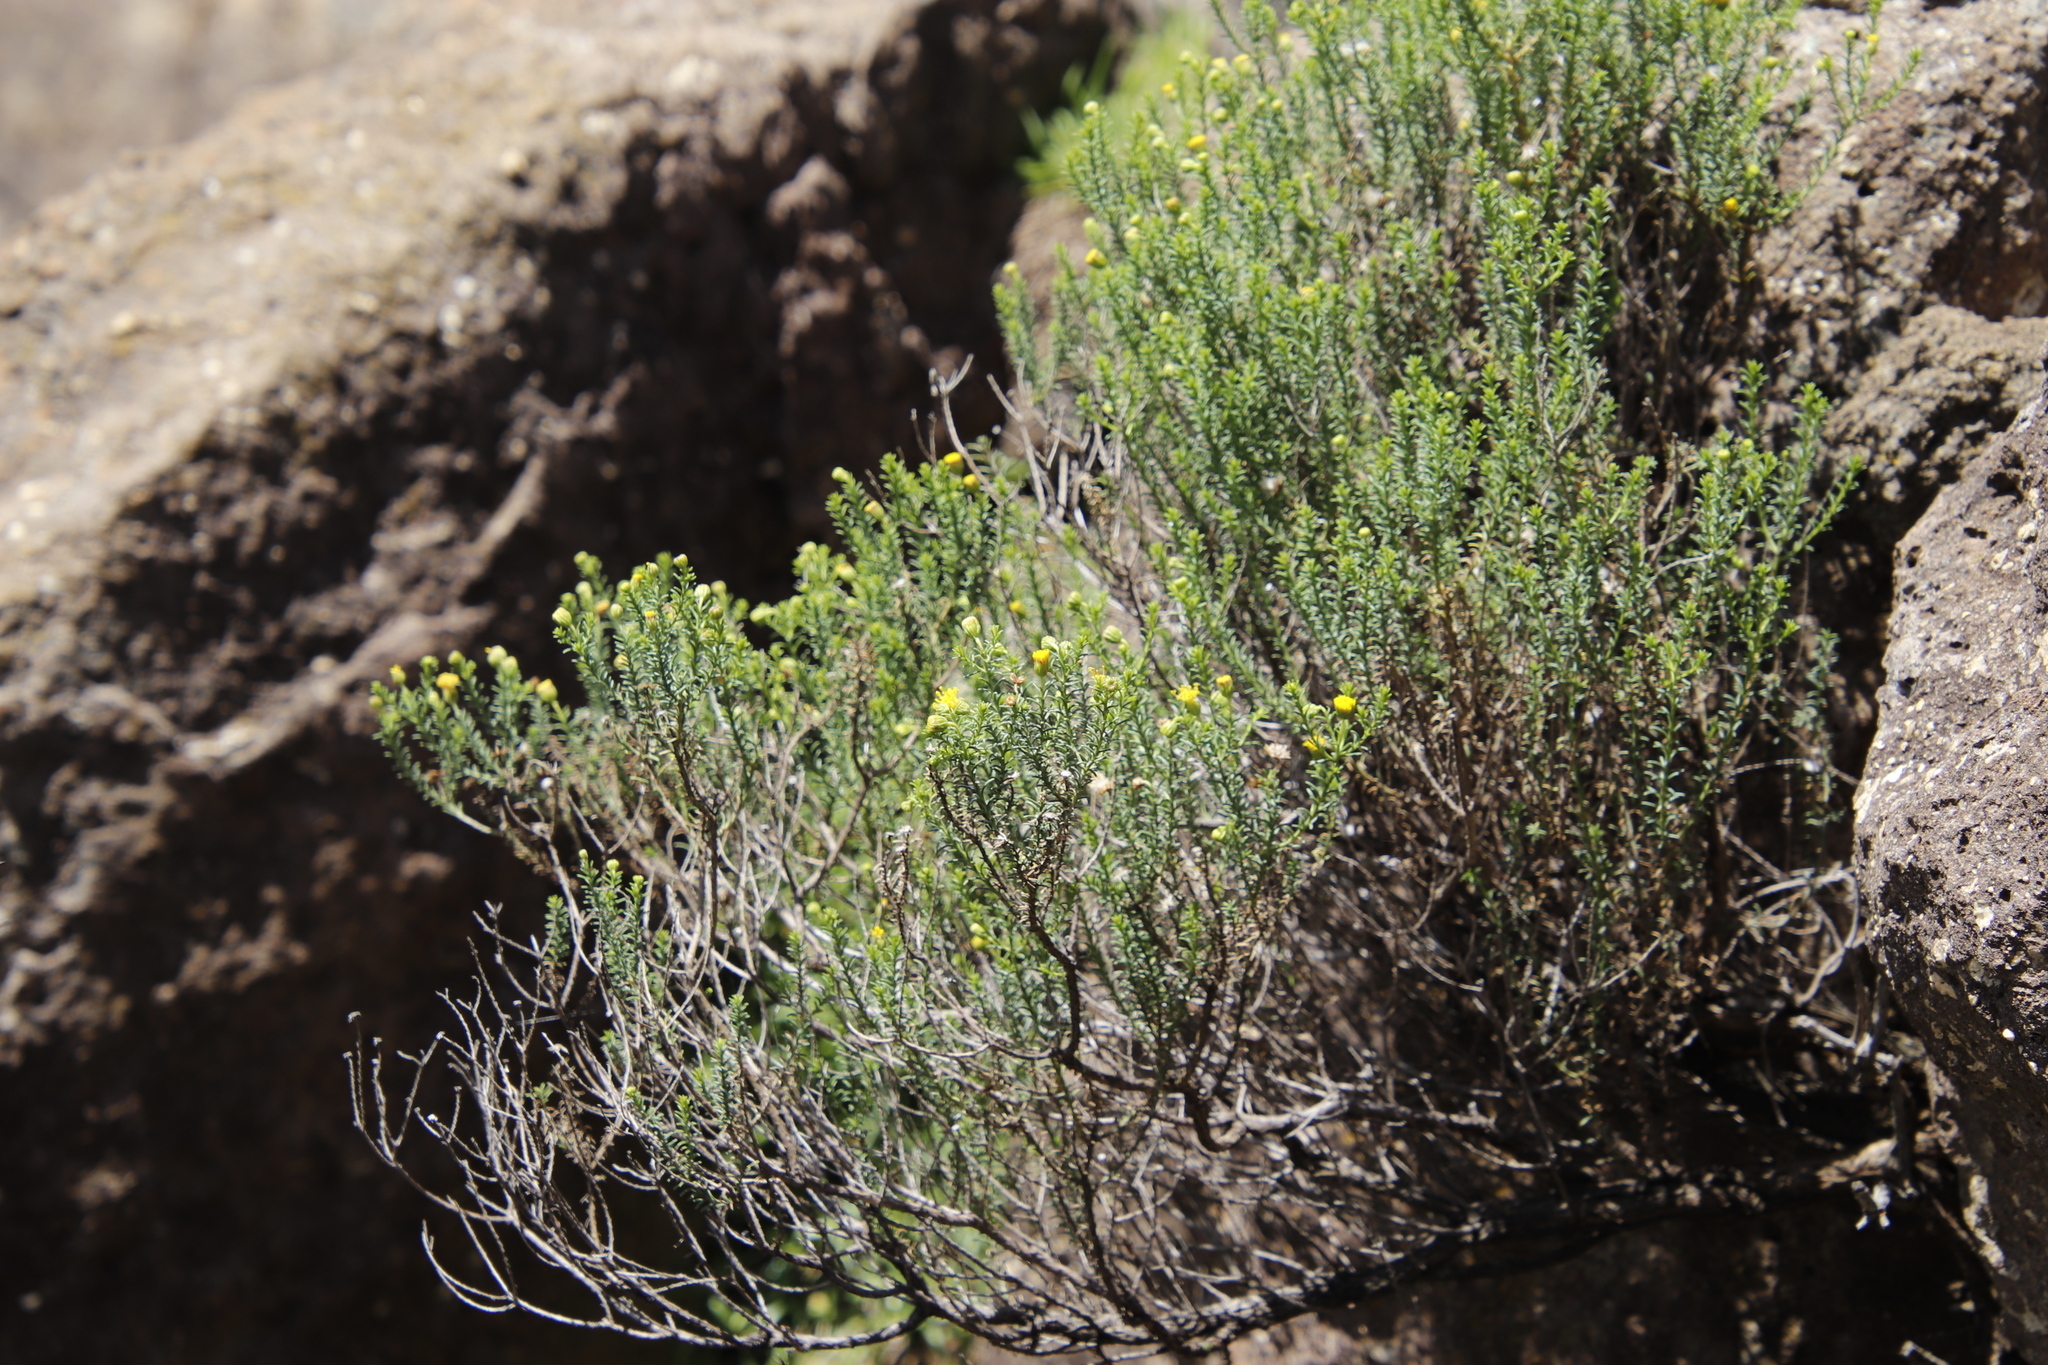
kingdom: Plantae
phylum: Tracheophyta
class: Magnoliopsida
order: Asterales
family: Asteraceae
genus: Chrysocoma
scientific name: Chrysocoma ciliata
